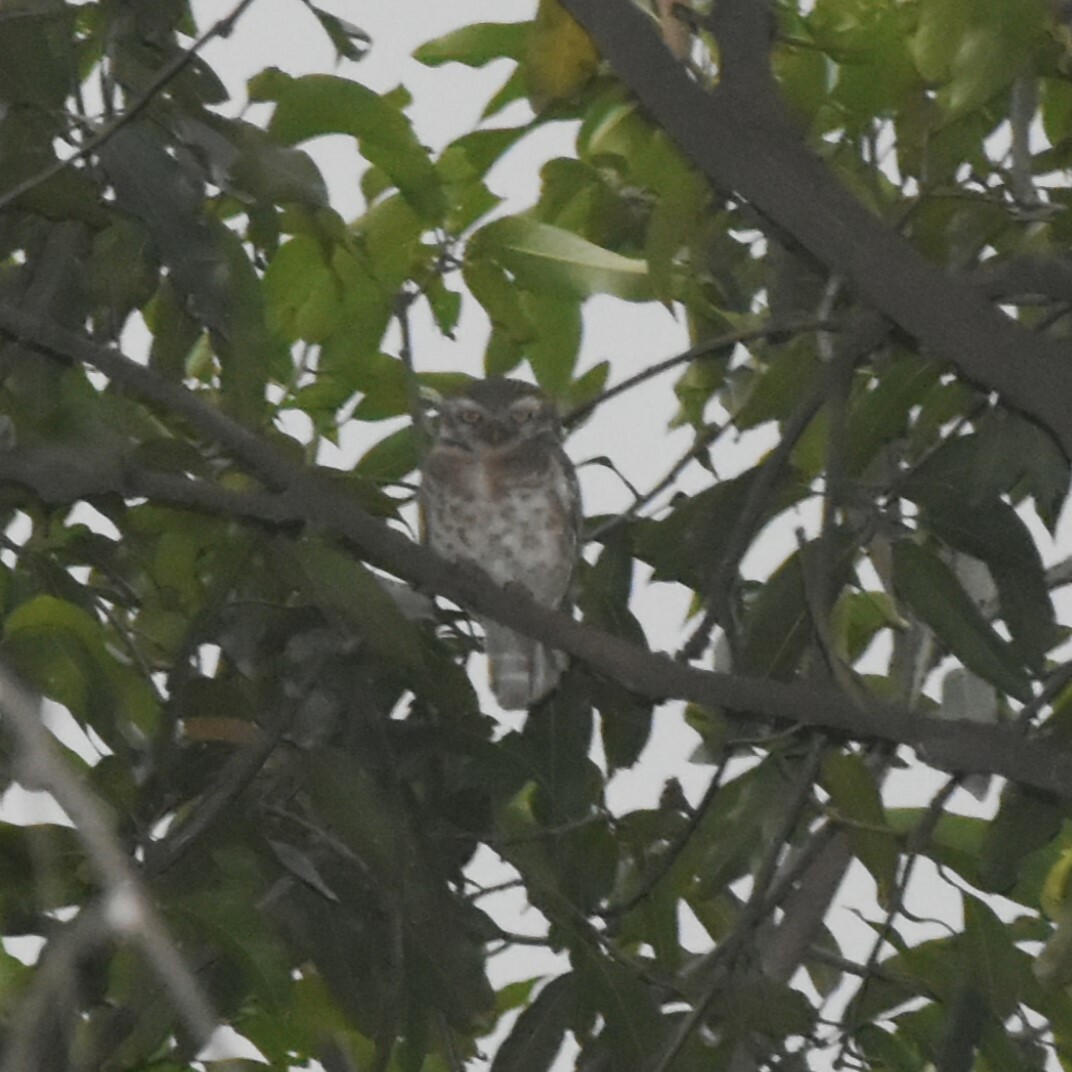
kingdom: Animalia
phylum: Chordata
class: Aves
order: Strigiformes
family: Strigidae
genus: Athene
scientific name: Athene brama
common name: Spotted owlet
